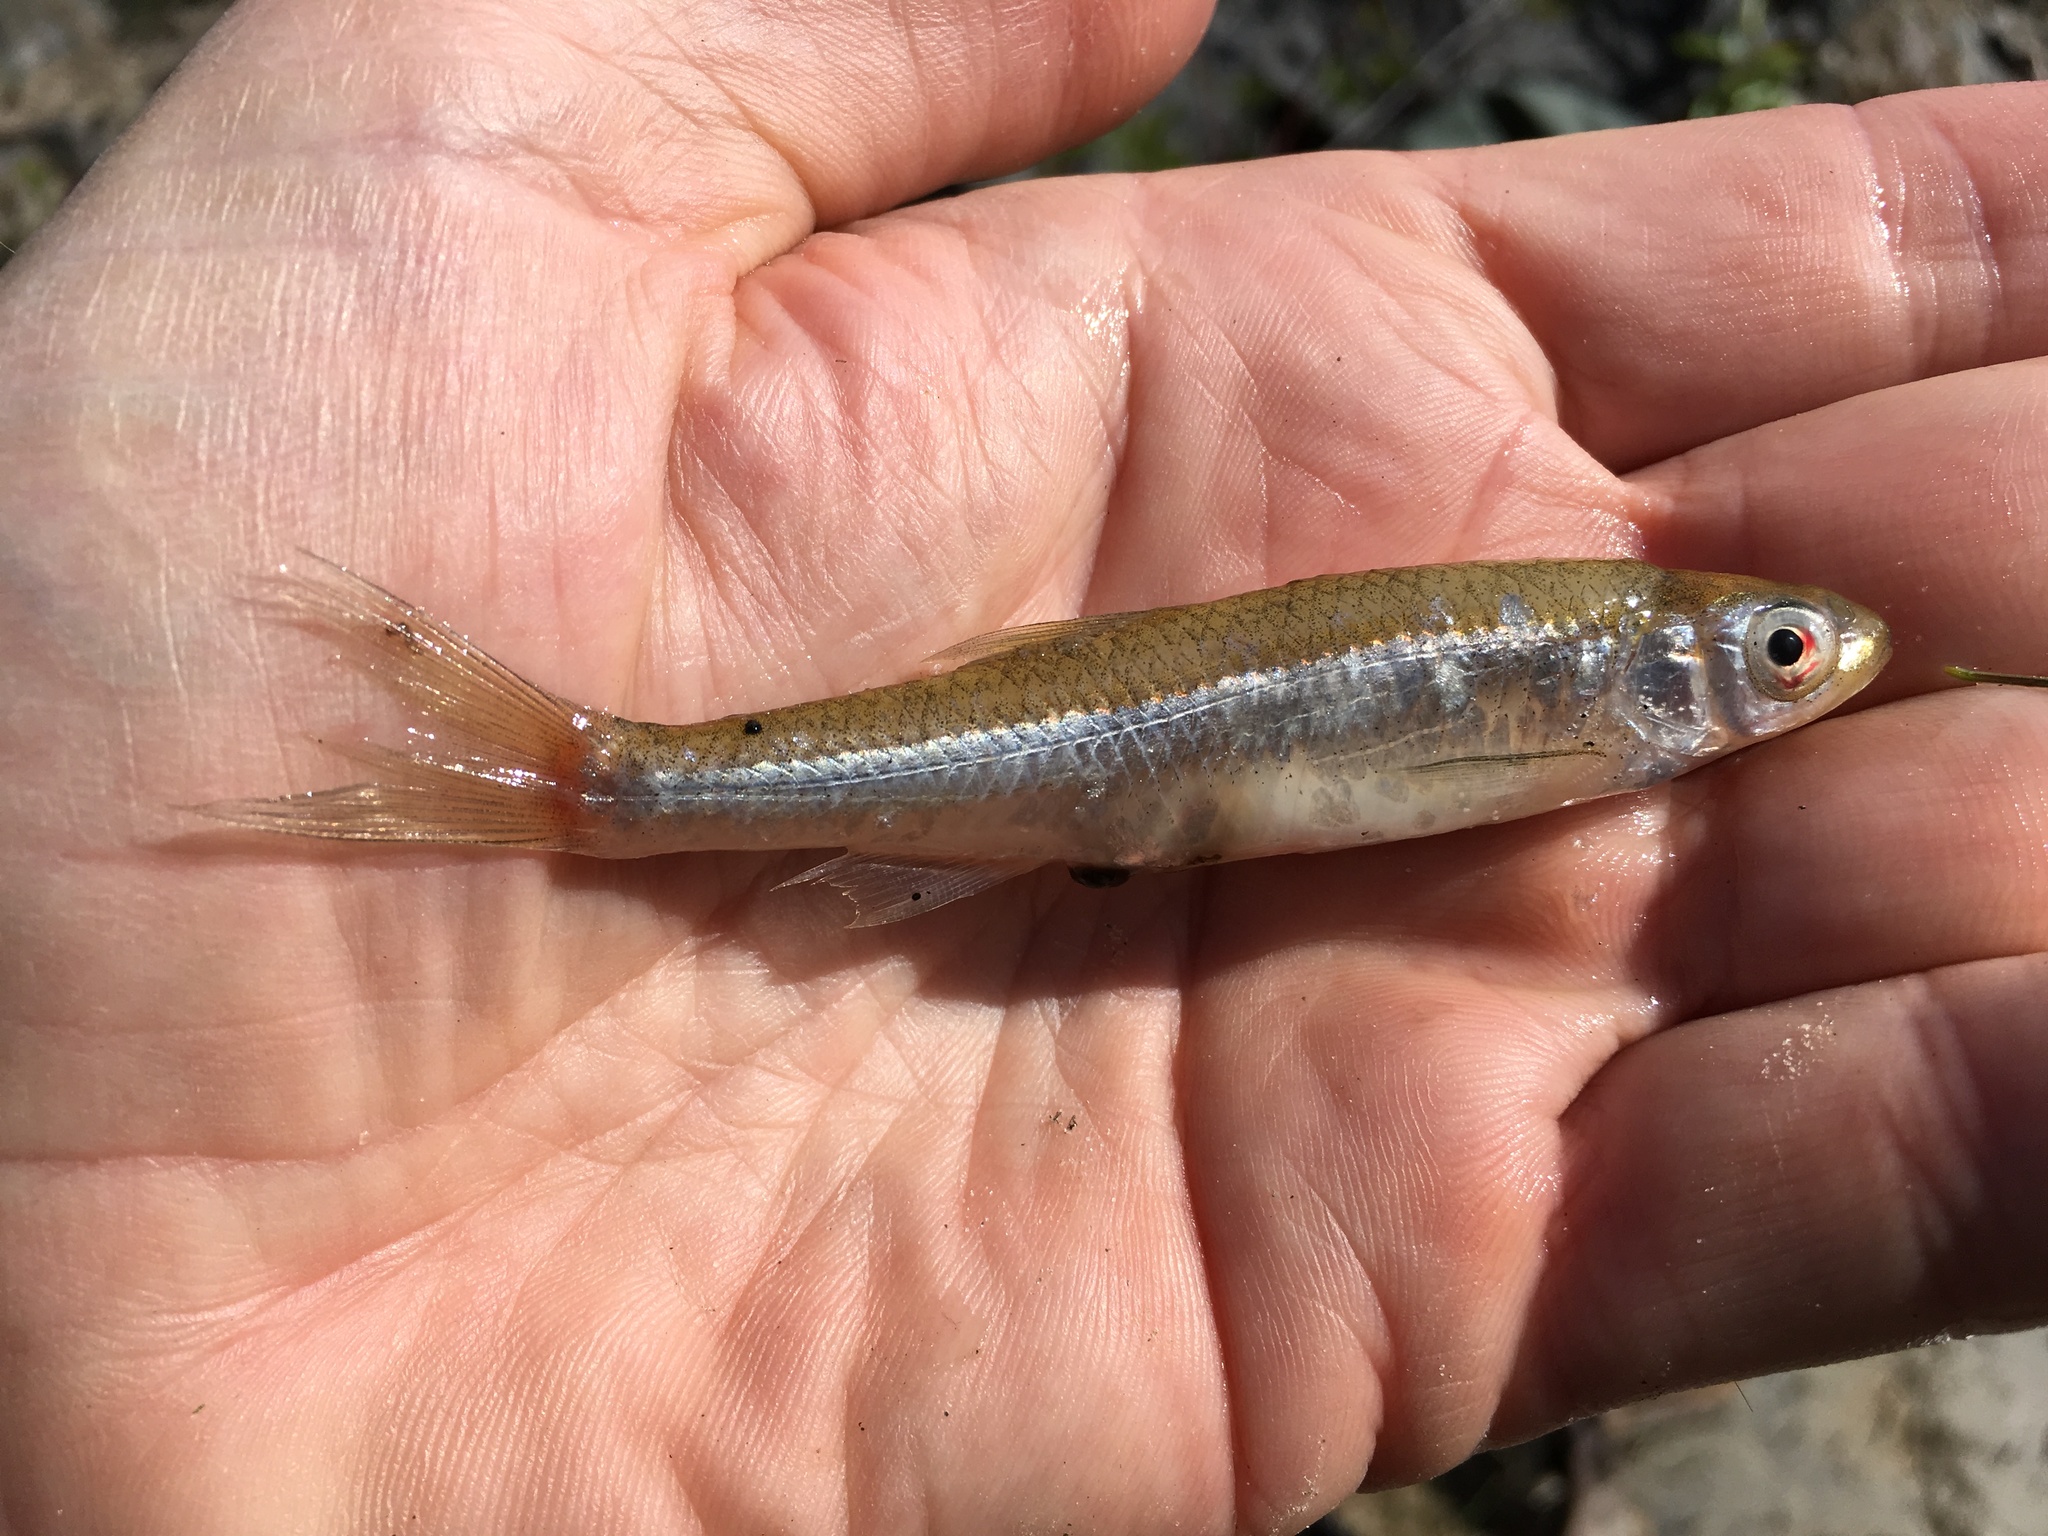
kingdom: Animalia
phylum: Chordata
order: Cypriniformes
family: Cyprinidae
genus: Notropis
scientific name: Notropis atherinoides
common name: Emerald shiner
